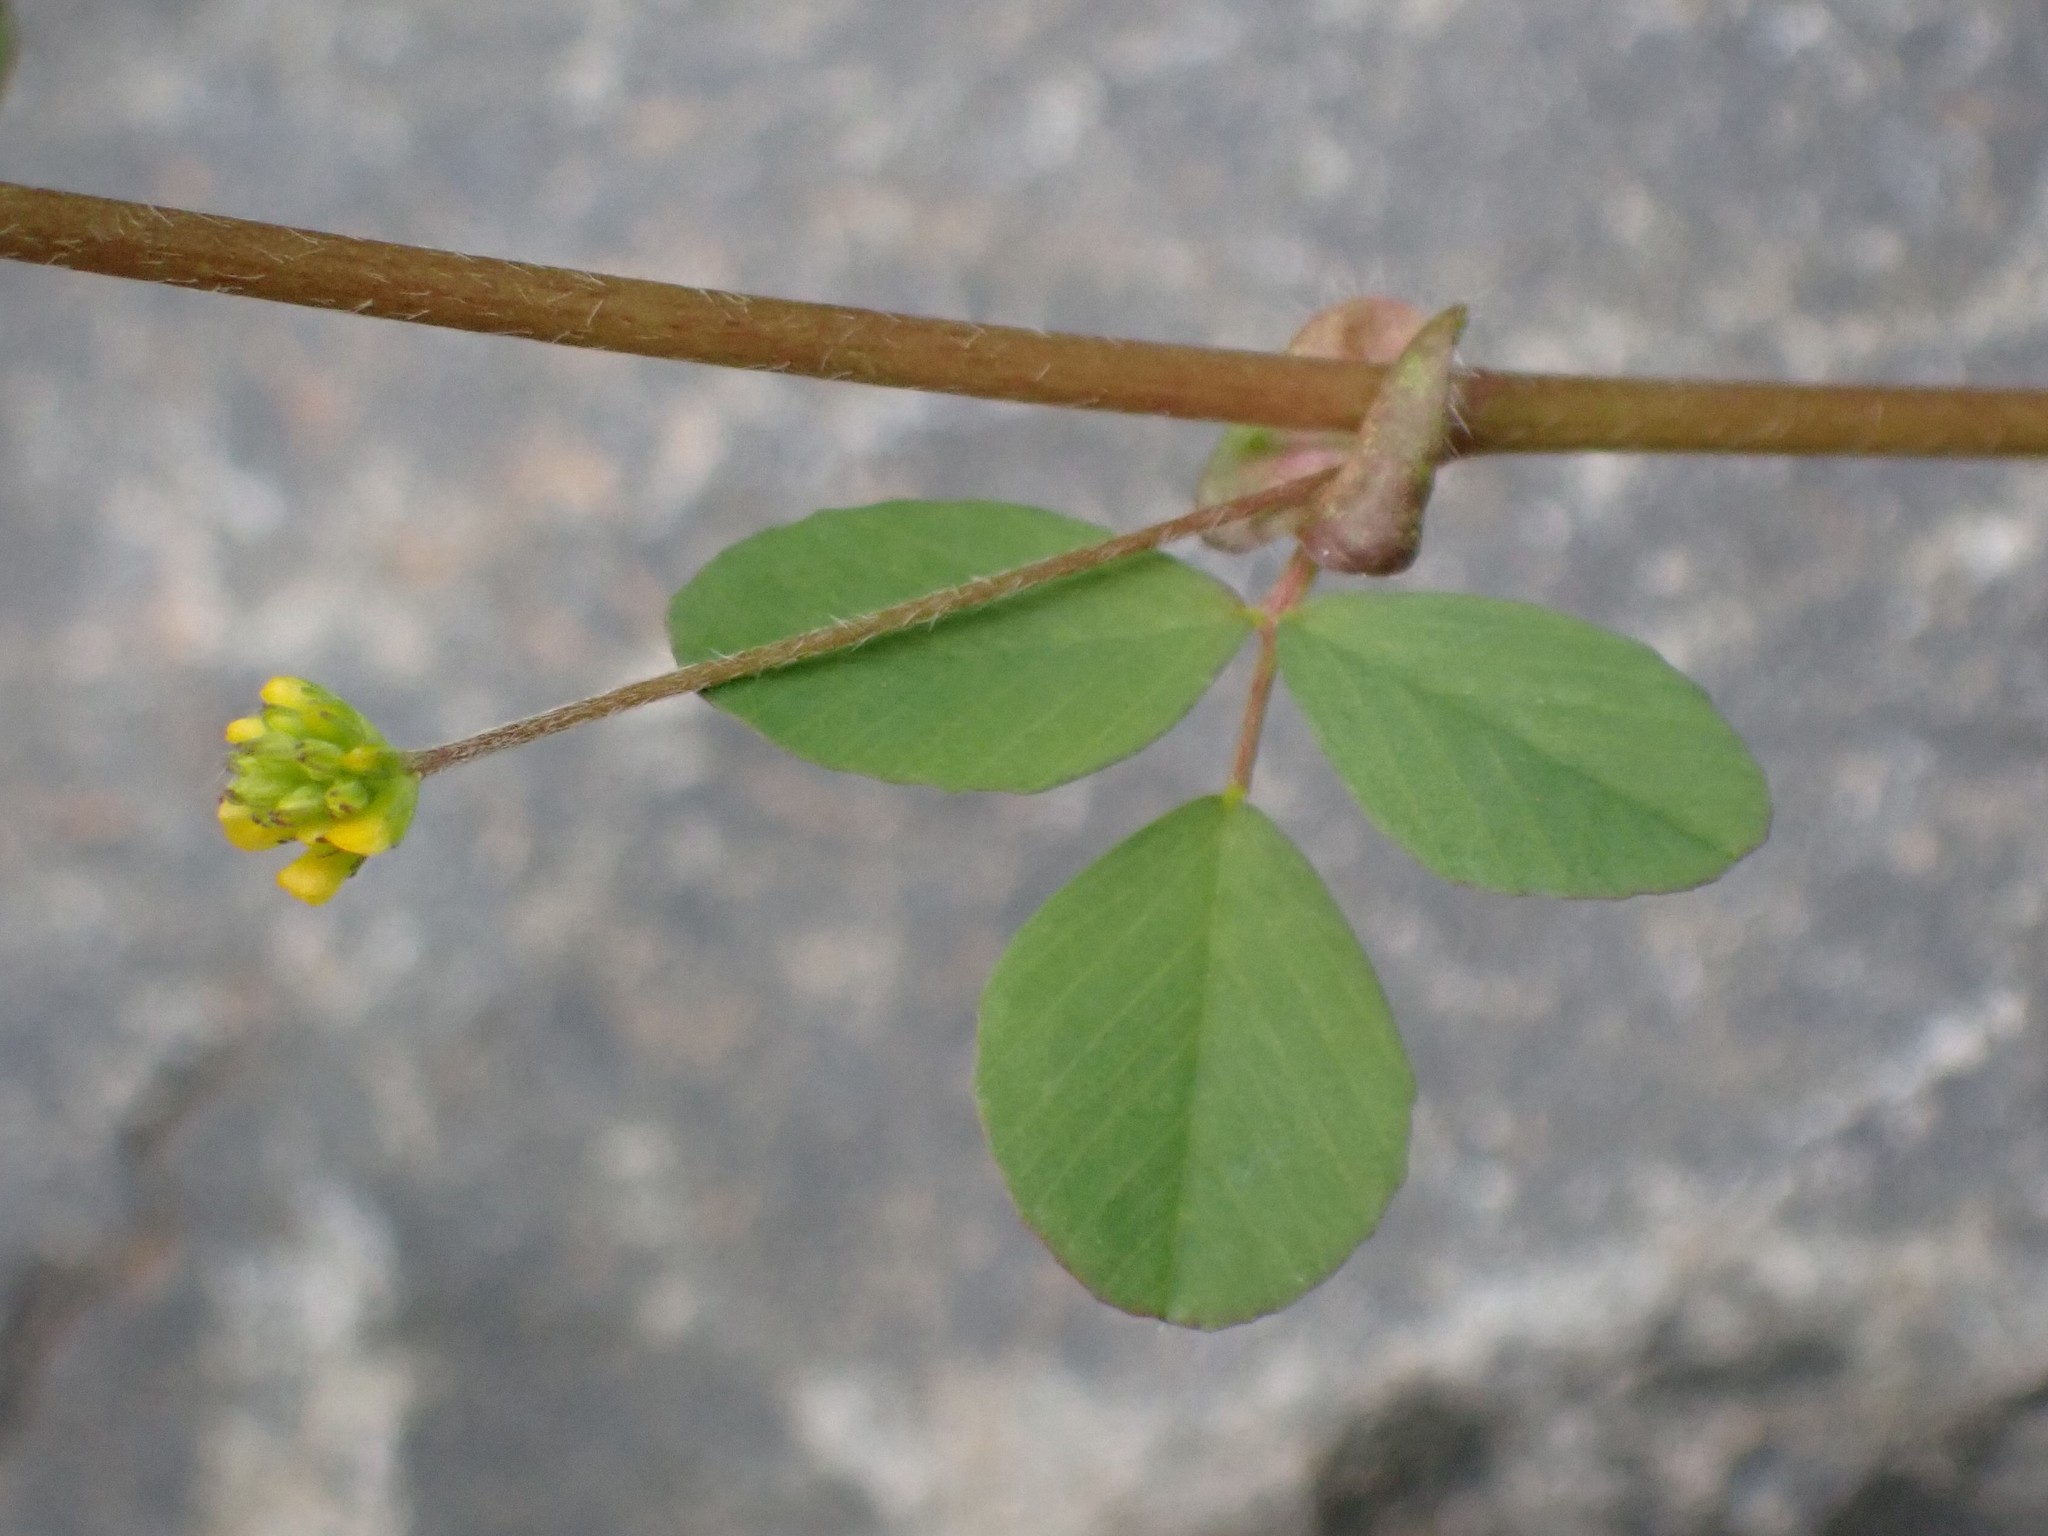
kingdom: Plantae
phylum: Tracheophyta
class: Magnoliopsida
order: Fabales
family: Fabaceae
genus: Trifolium
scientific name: Trifolium dubium
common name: Suckling clover
